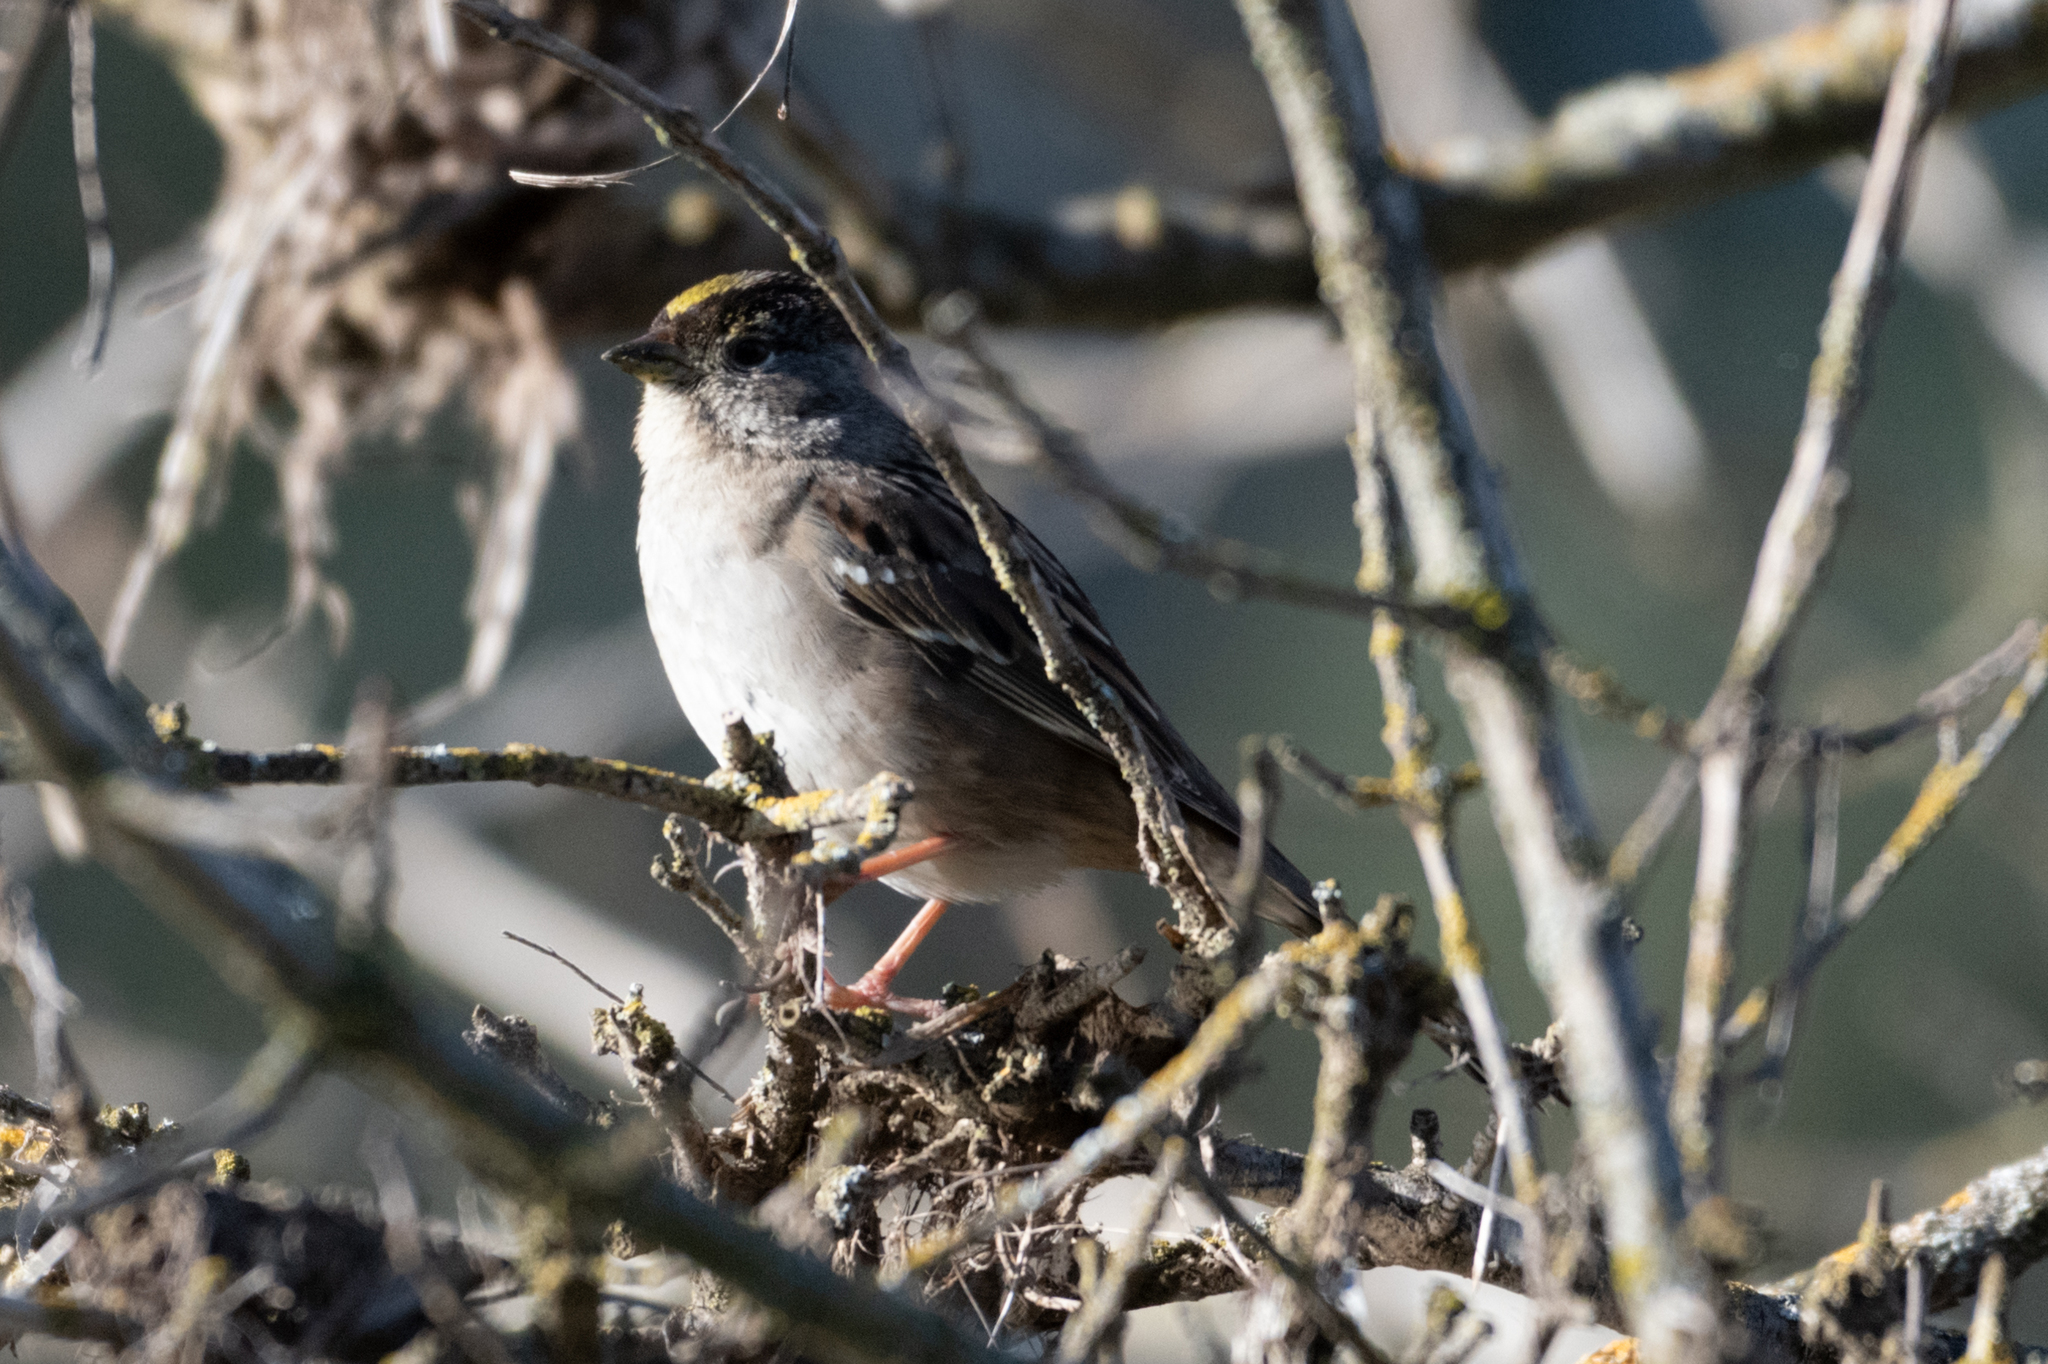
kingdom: Animalia
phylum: Chordata
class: Aves
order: Passeriformes
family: Passerellidae
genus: Zonotrichia
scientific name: Zonotrichia atricapilla
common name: Golden-crowned sparrow
